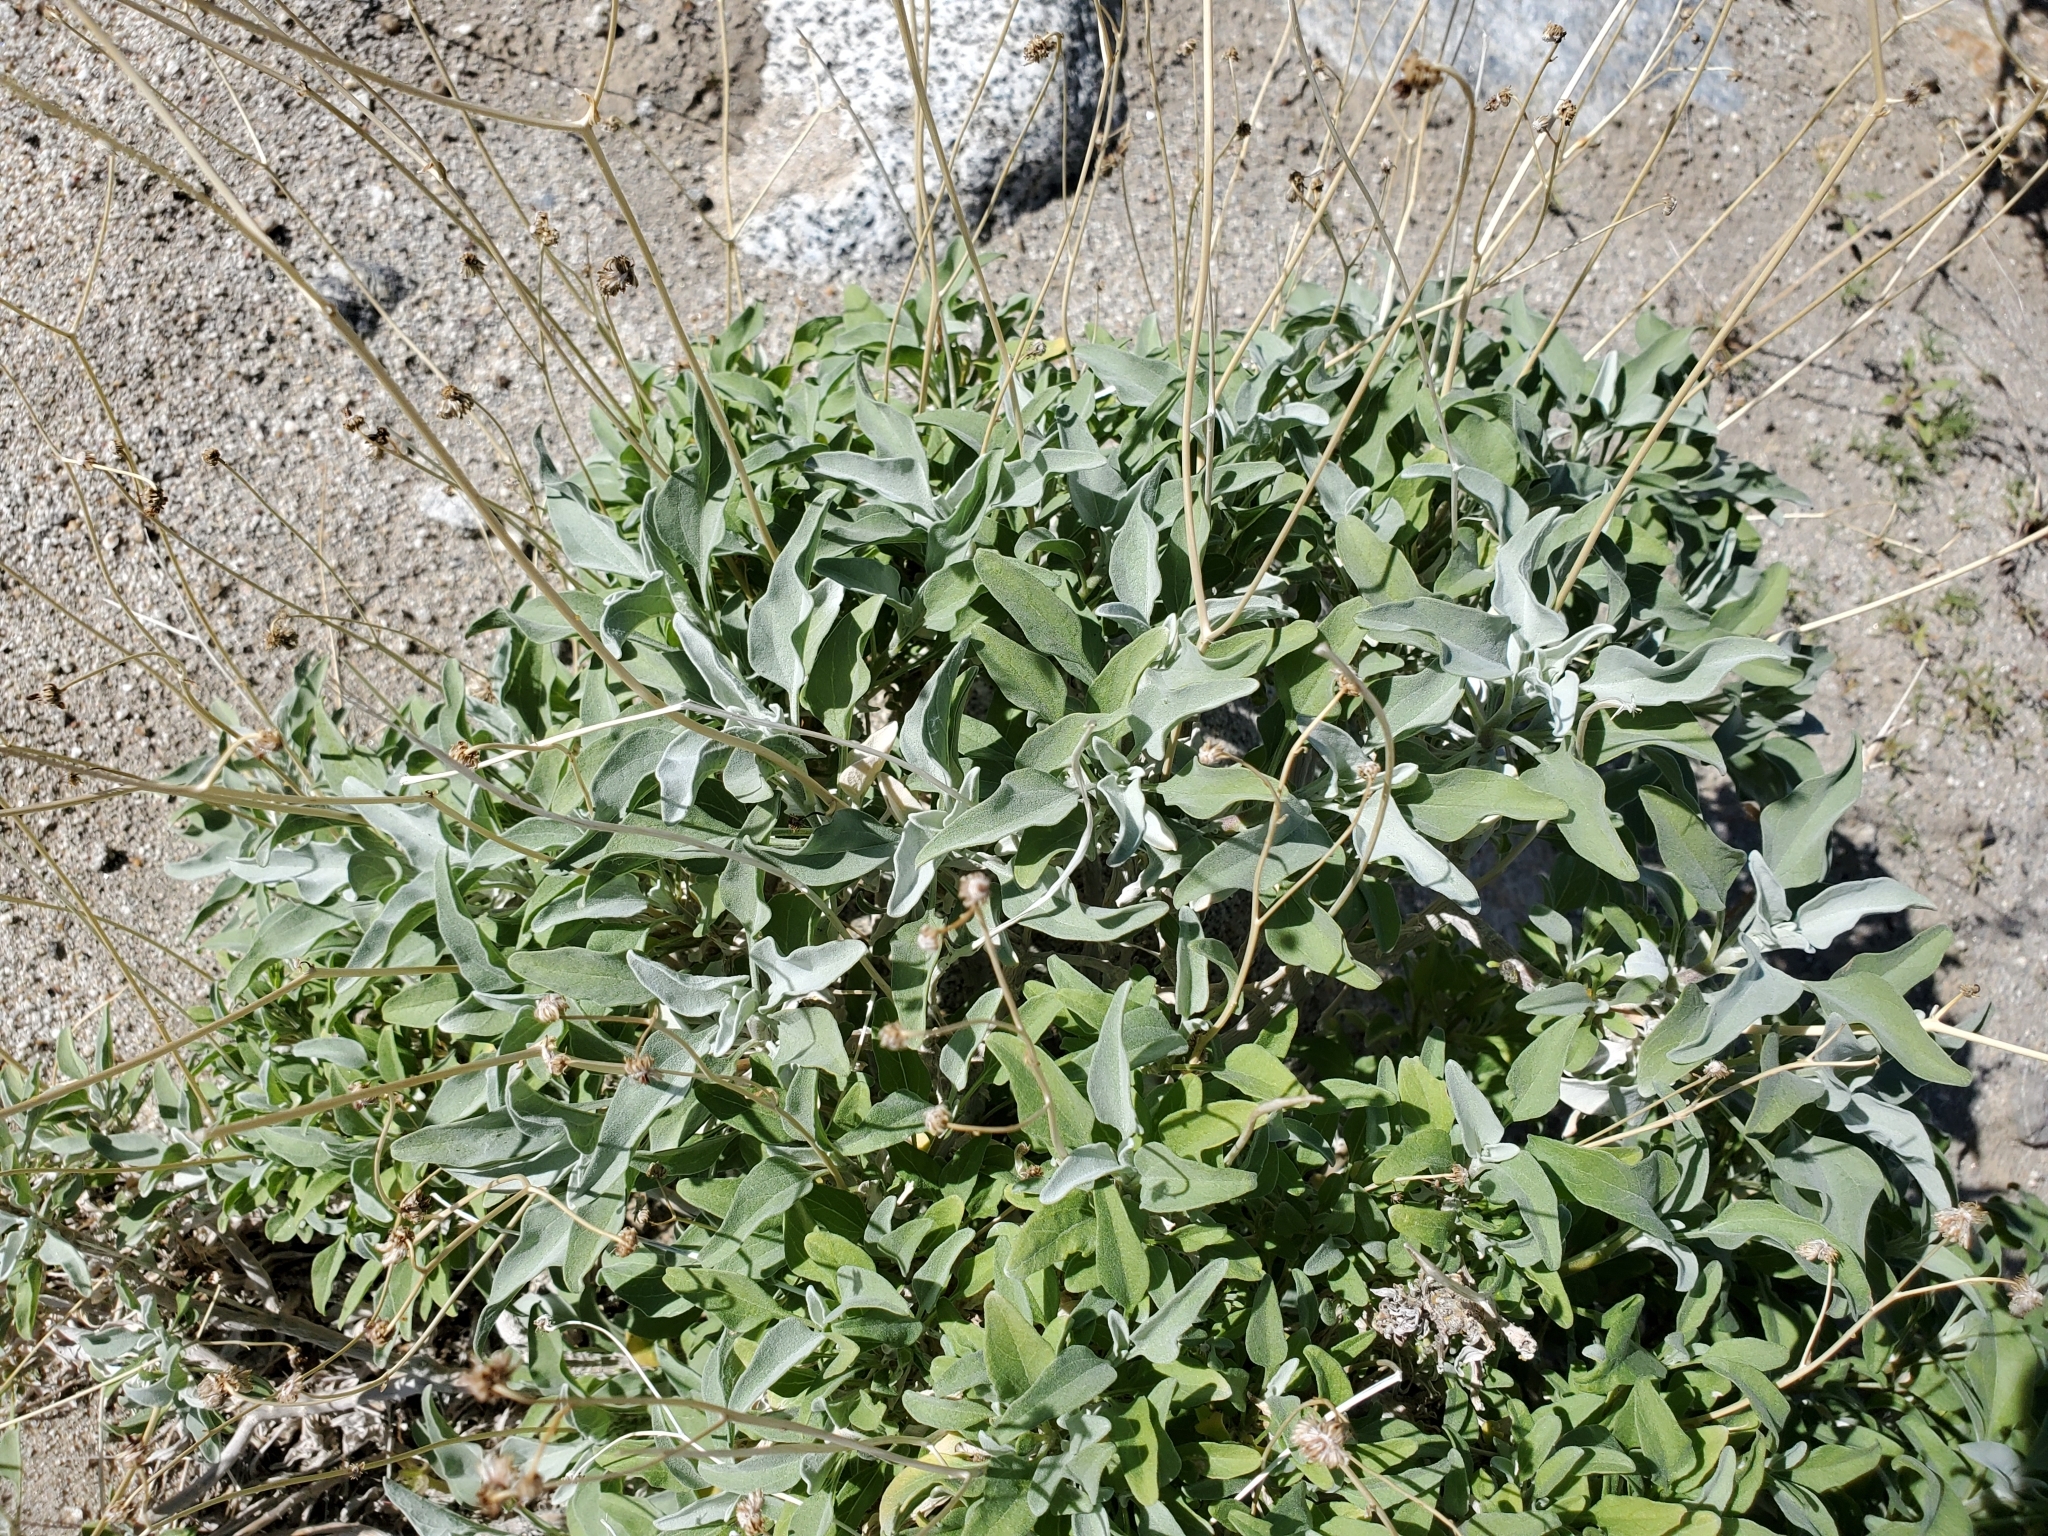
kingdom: Plantae
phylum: Tracheophyta
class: Magnoliopsida
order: Asterales
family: Asteraceae
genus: Encelia
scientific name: Encelia farinosa
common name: Brittlebush
